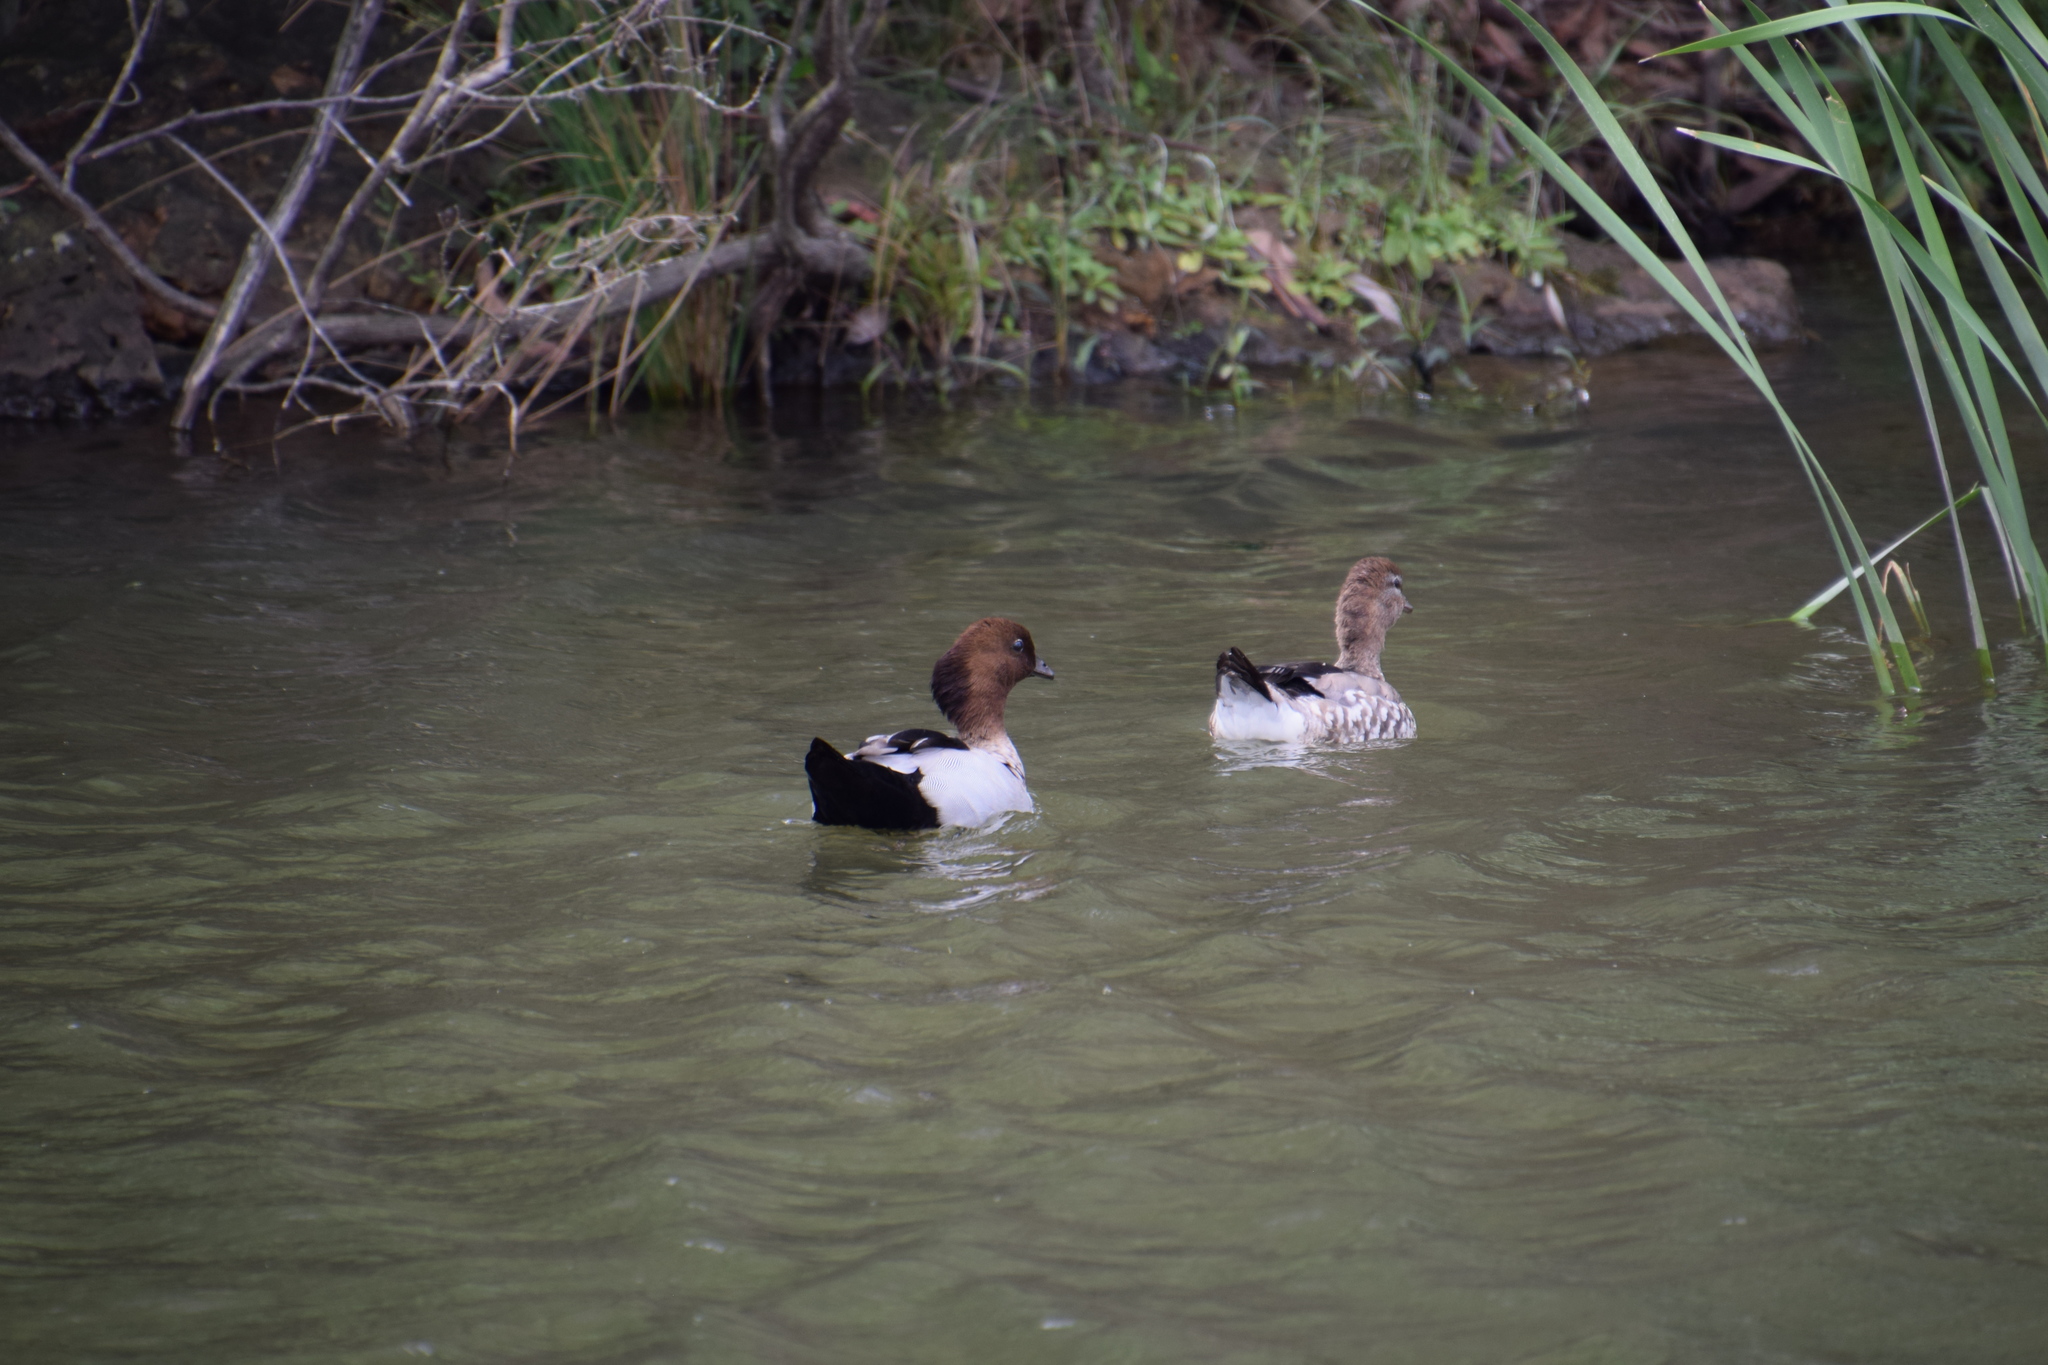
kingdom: Animalia
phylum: Chordata
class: Aves
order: Anseriformes
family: Anatidae
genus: Chenonetta
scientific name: Chenonetta jubata
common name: Maned duck
